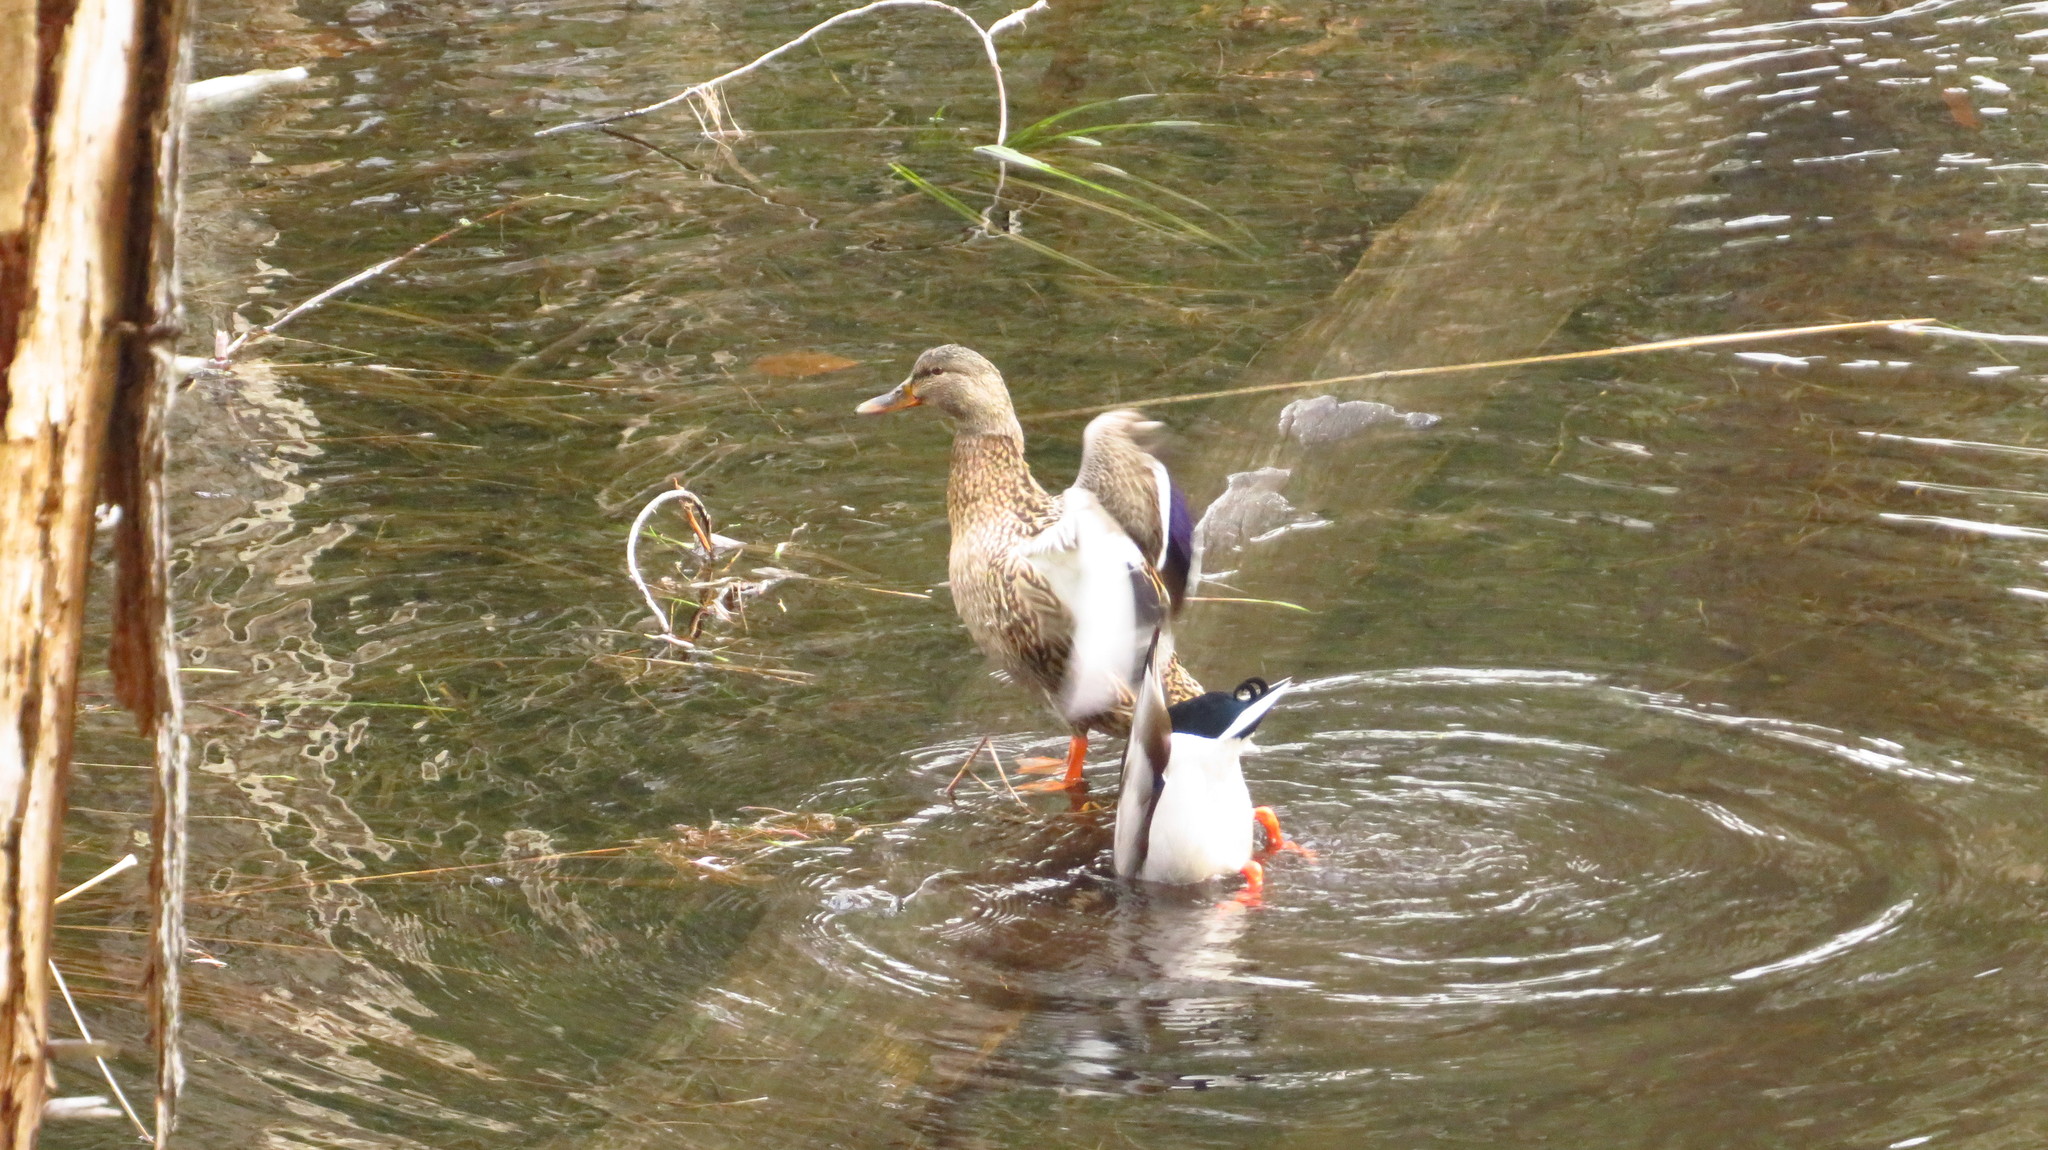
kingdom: Animalia
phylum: Chordata
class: Aves
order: Anseriformes
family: Anatidae
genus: Anas
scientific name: Anas platyrhynchos
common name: Mallard
